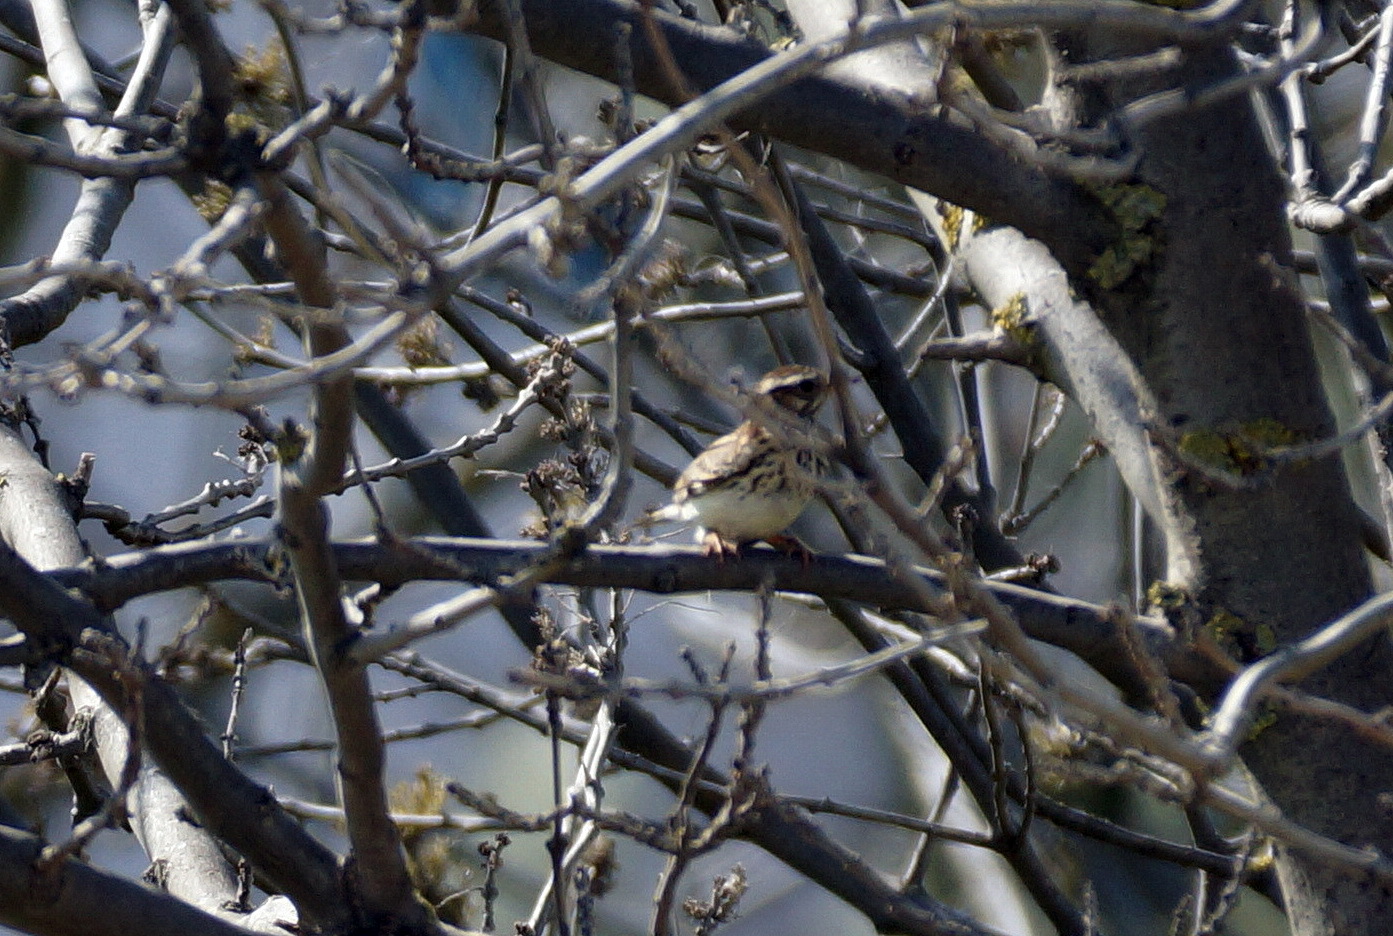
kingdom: Animalia
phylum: Chordata
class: Aves
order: Passeriformes
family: Alaudidae
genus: Lullula
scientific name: Lullula arborea
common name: Woodlark
